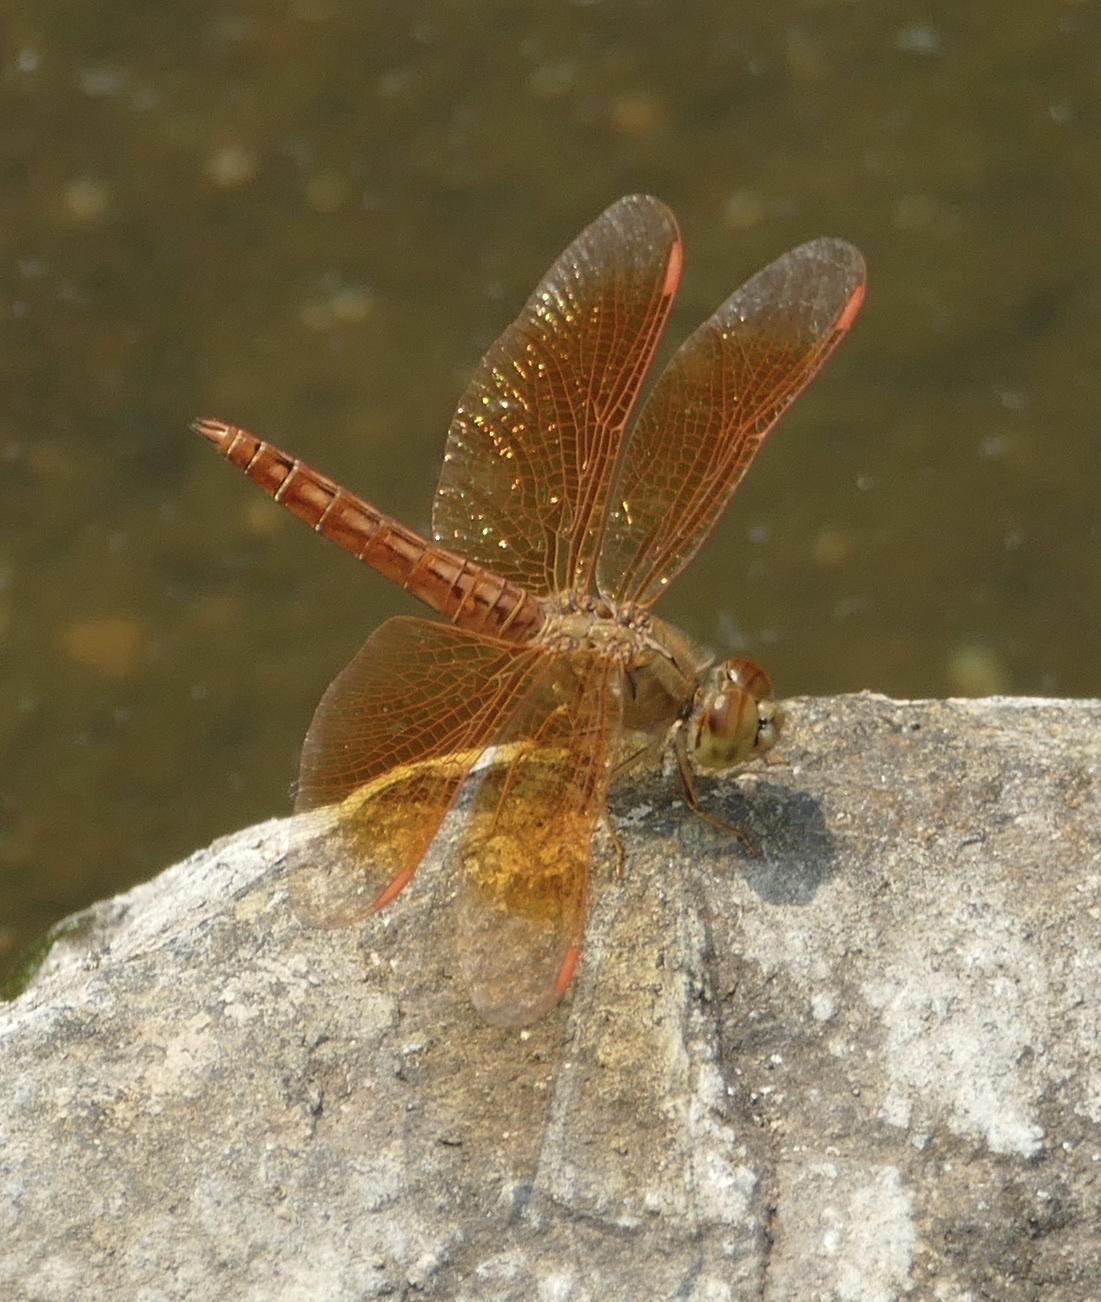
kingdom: Animalia
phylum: Arthropoda
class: Insecta
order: Odonata
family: Libellulidae
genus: Brachythemis
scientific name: Brachythemis contaminata
